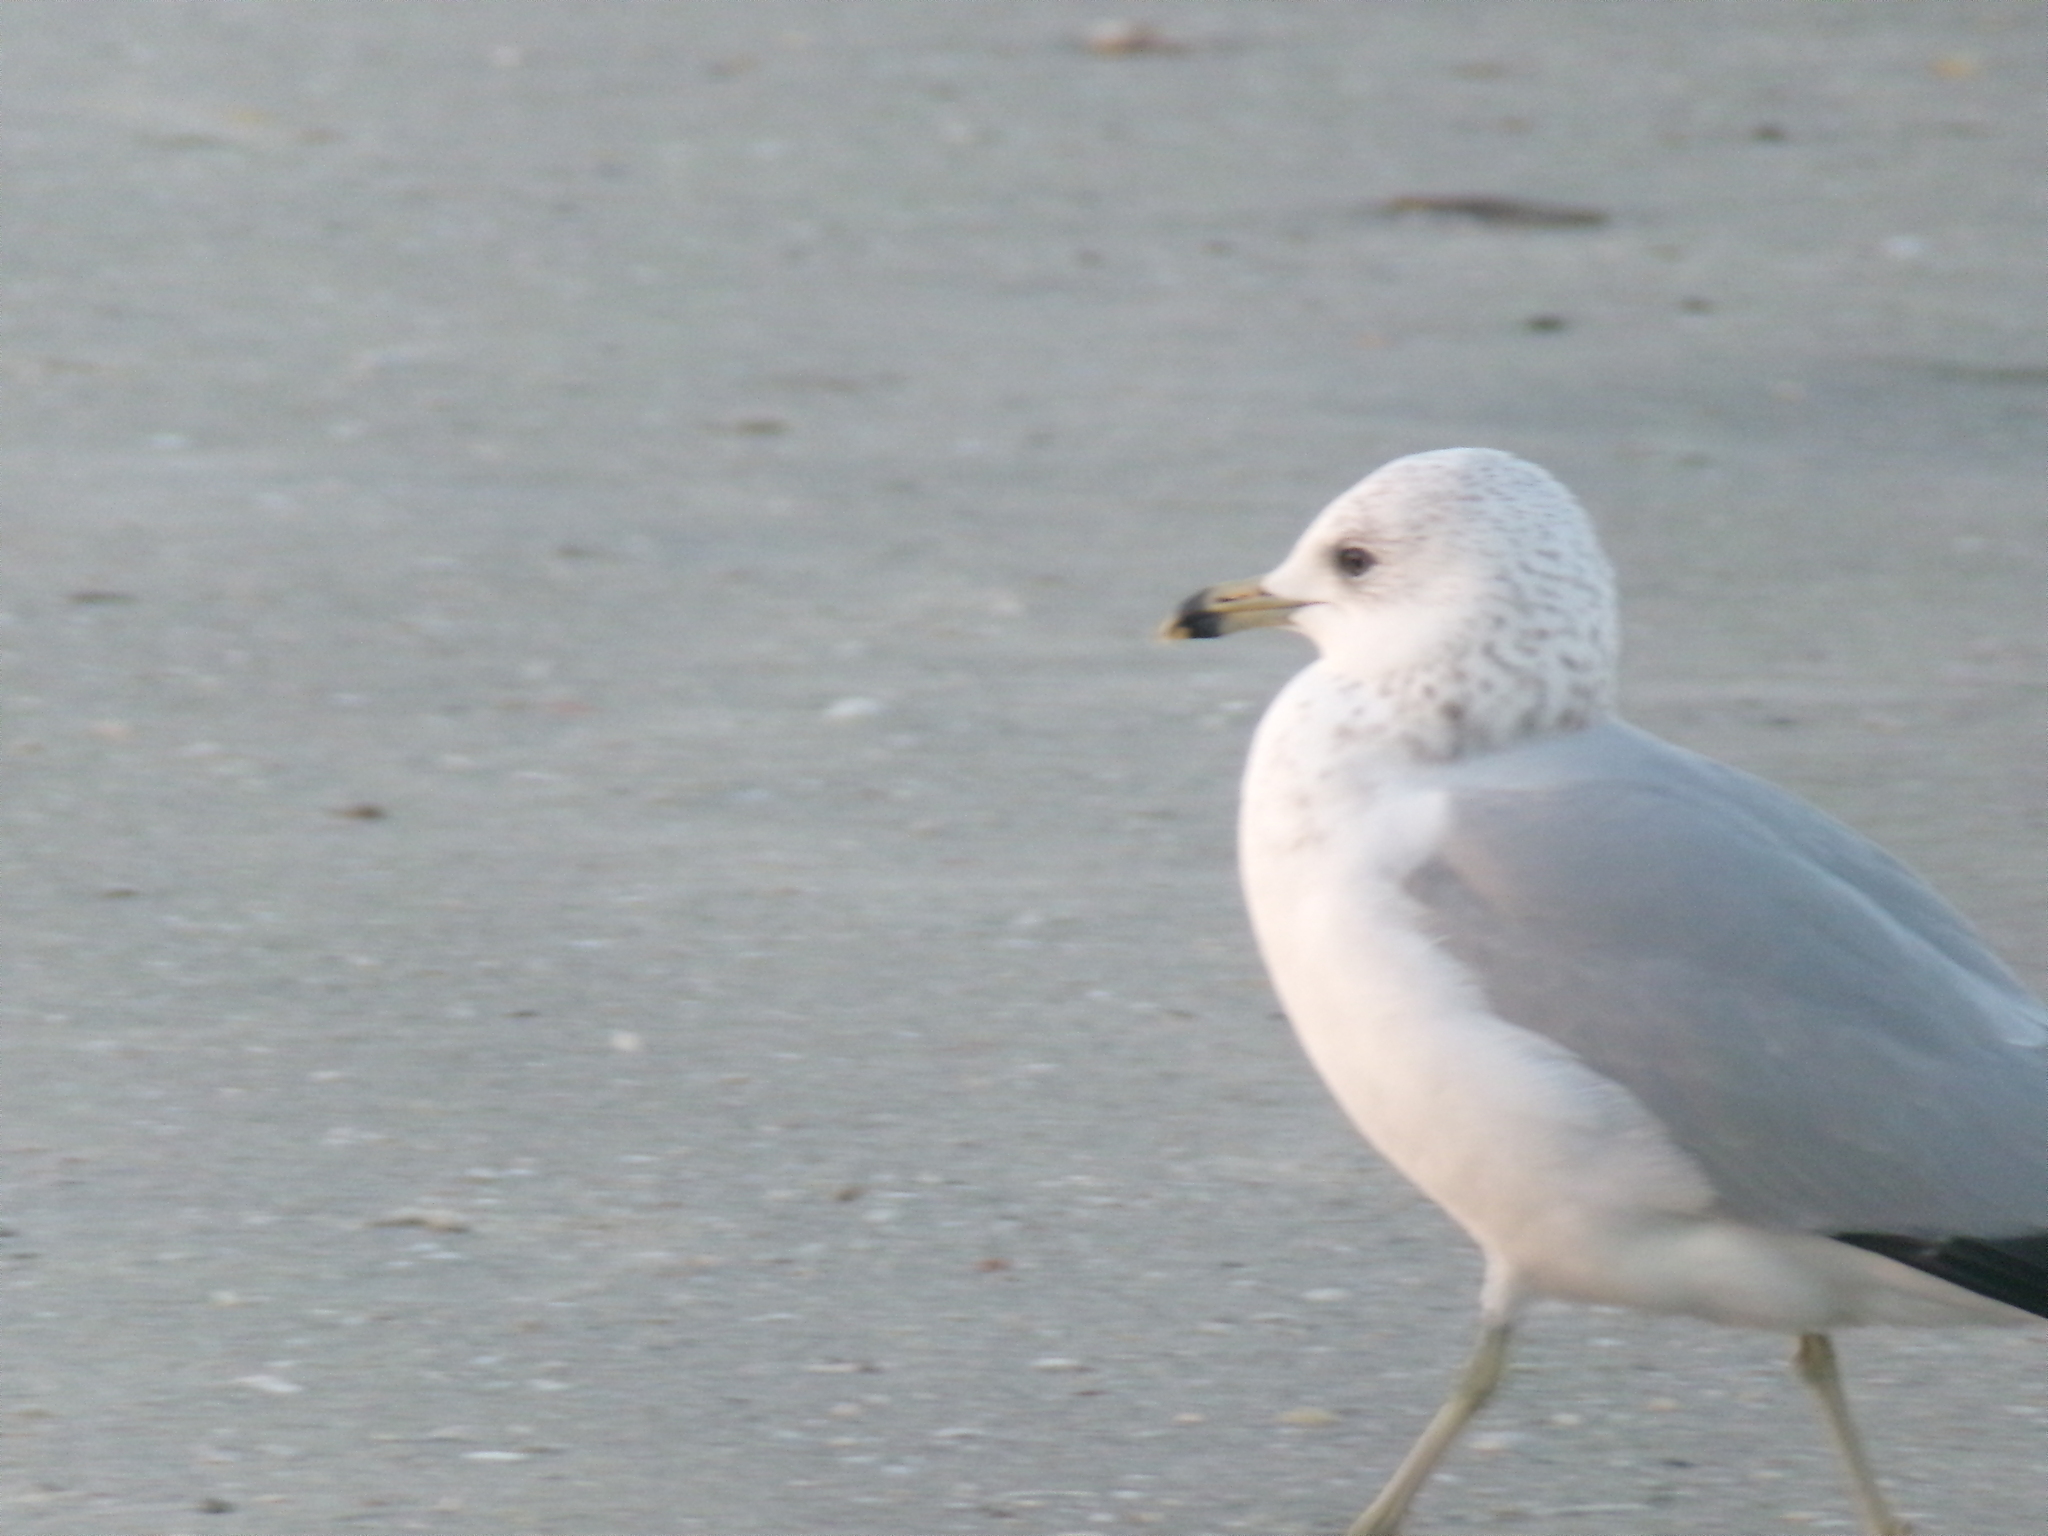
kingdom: Animalia
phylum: Chordata
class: Aves
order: Charadriiformes
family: Laridae
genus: Larus
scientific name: Larus delawarensis
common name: Ring-billed gull
